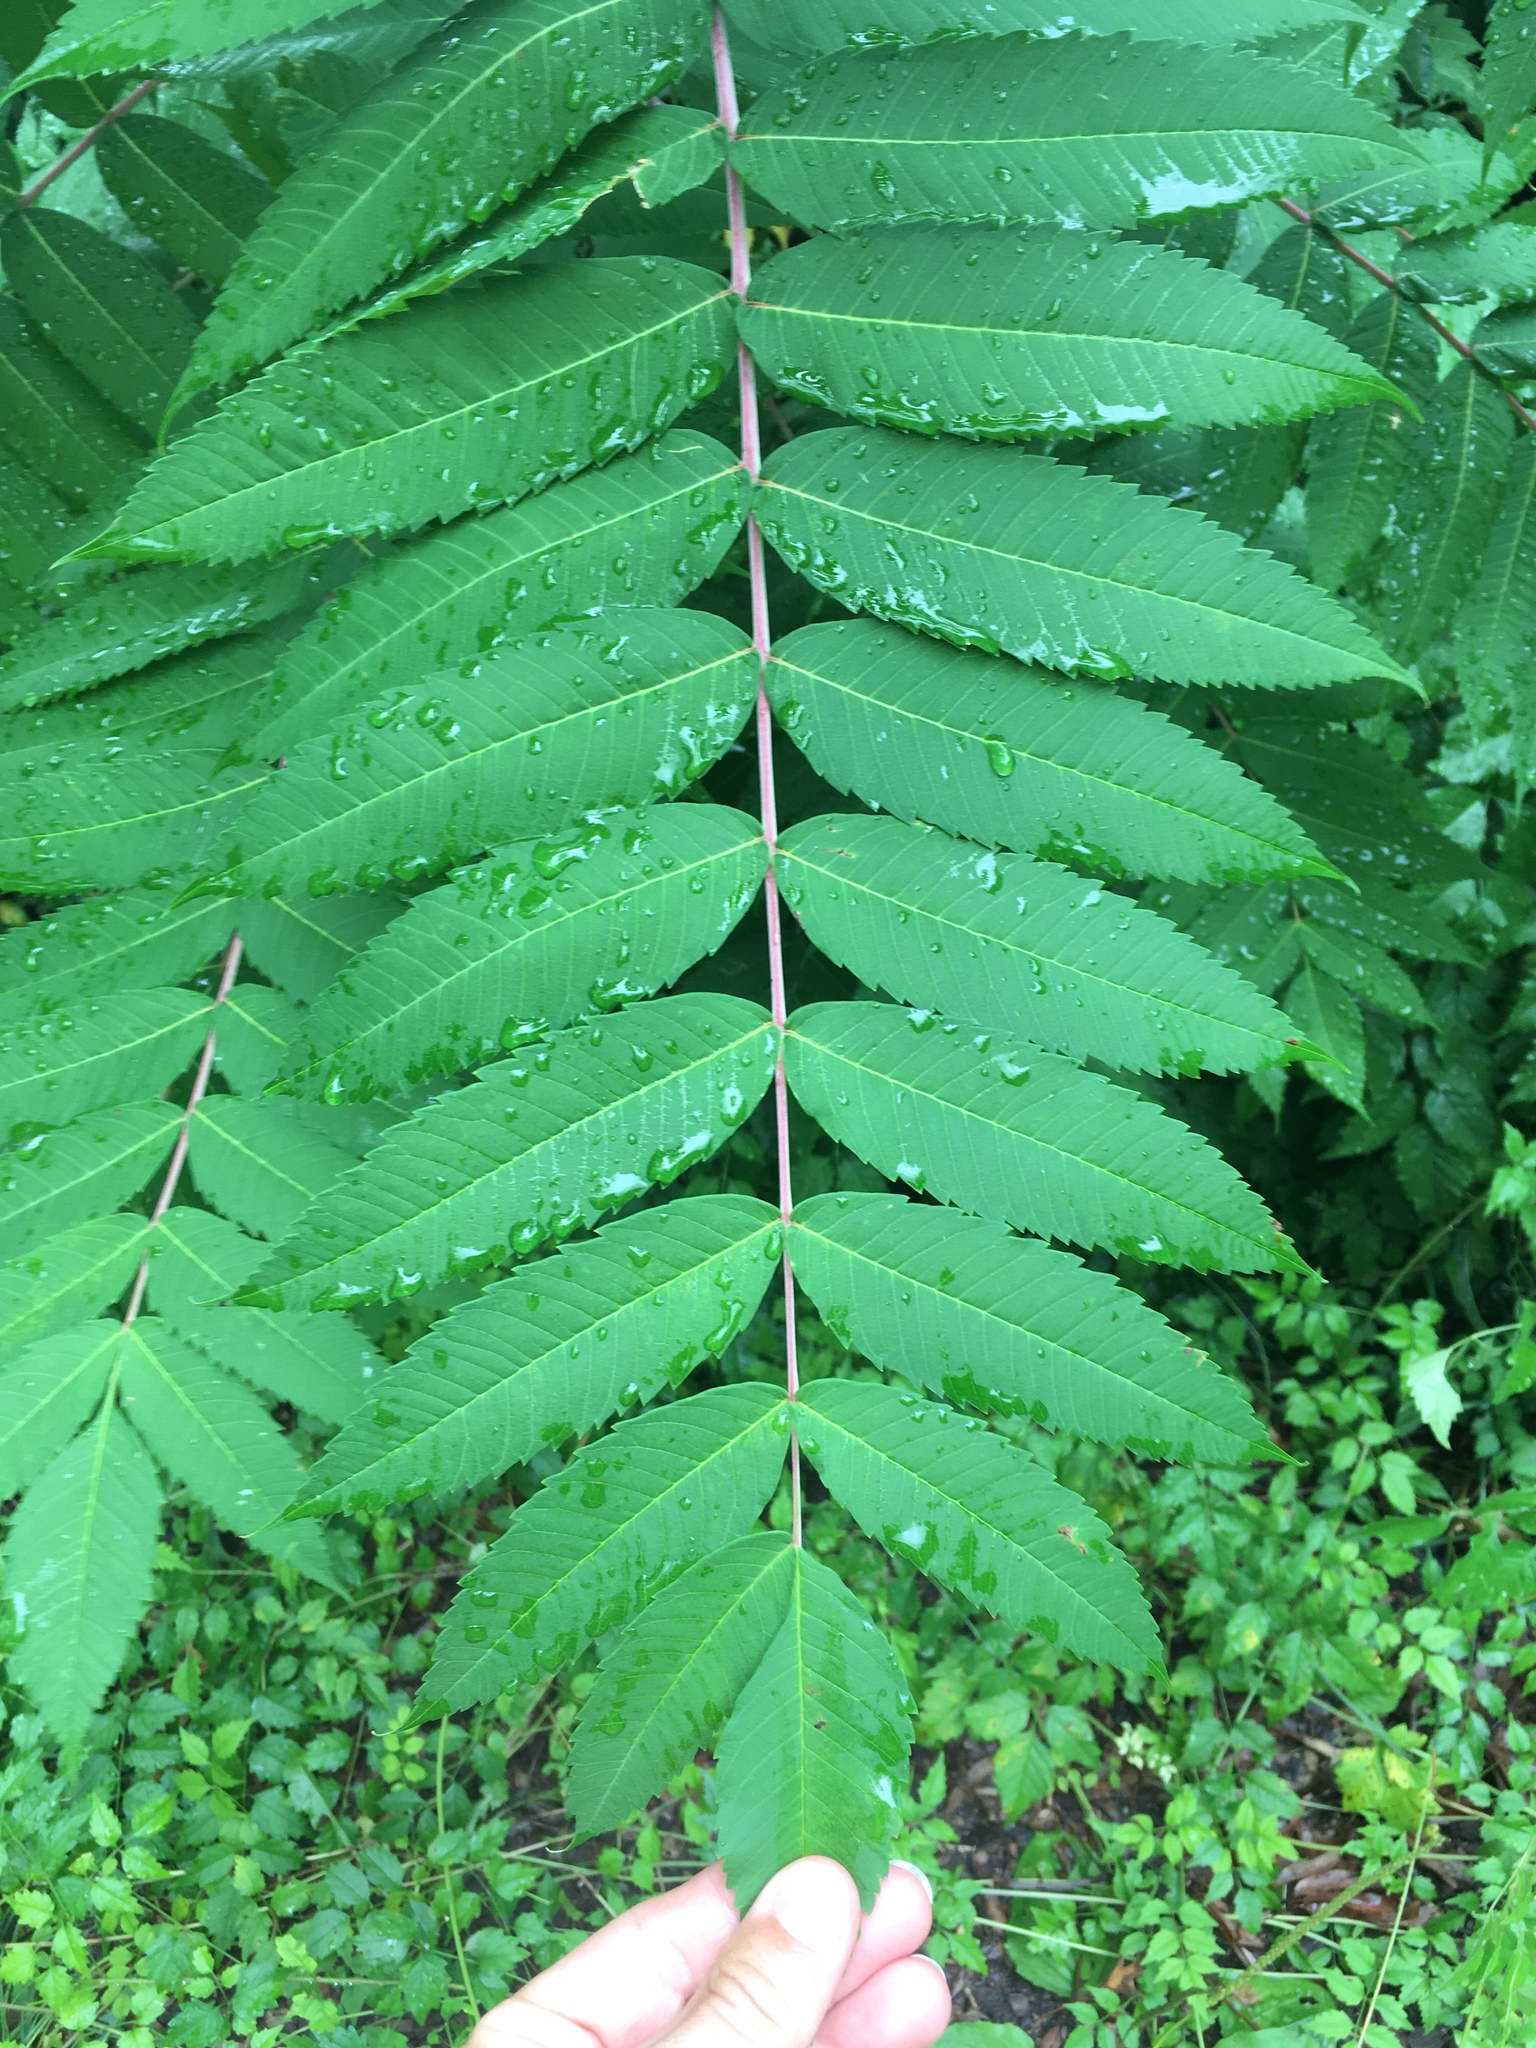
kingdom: Plantae
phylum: Tracheophyta
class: Magnoliopsida
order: Sapindales
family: Anacardiaceae
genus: Rhus
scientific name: Rhus glabra
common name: Scarlet sumac
